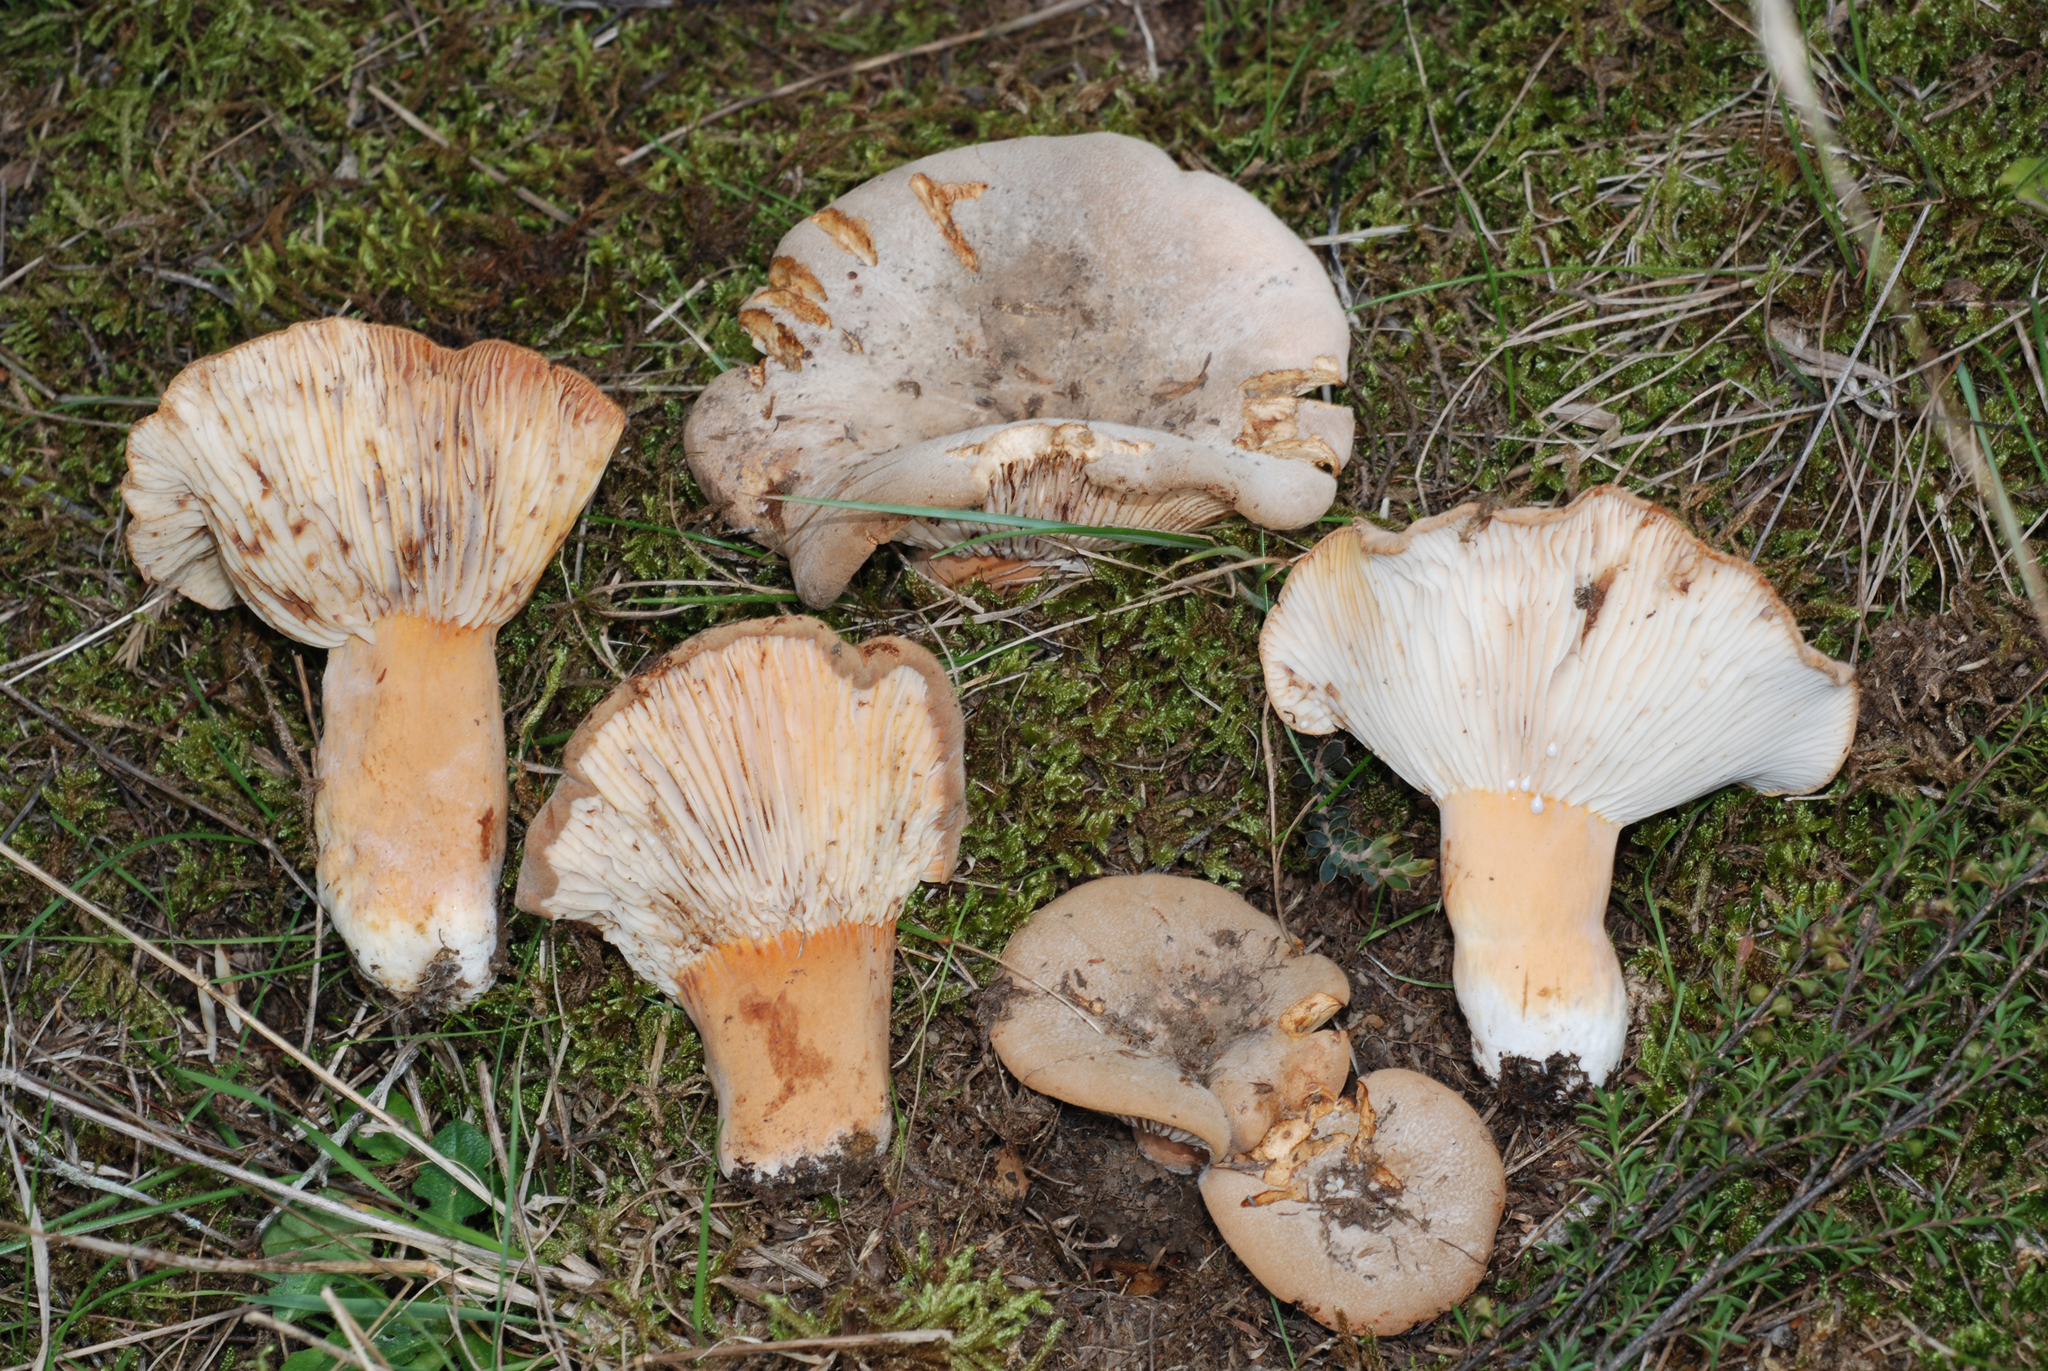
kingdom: Fungi
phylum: Basidiomycota
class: Agaricomycetes
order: Russulales
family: Russulaceae
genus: Lactifluus
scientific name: Lactifluus clarkeae
